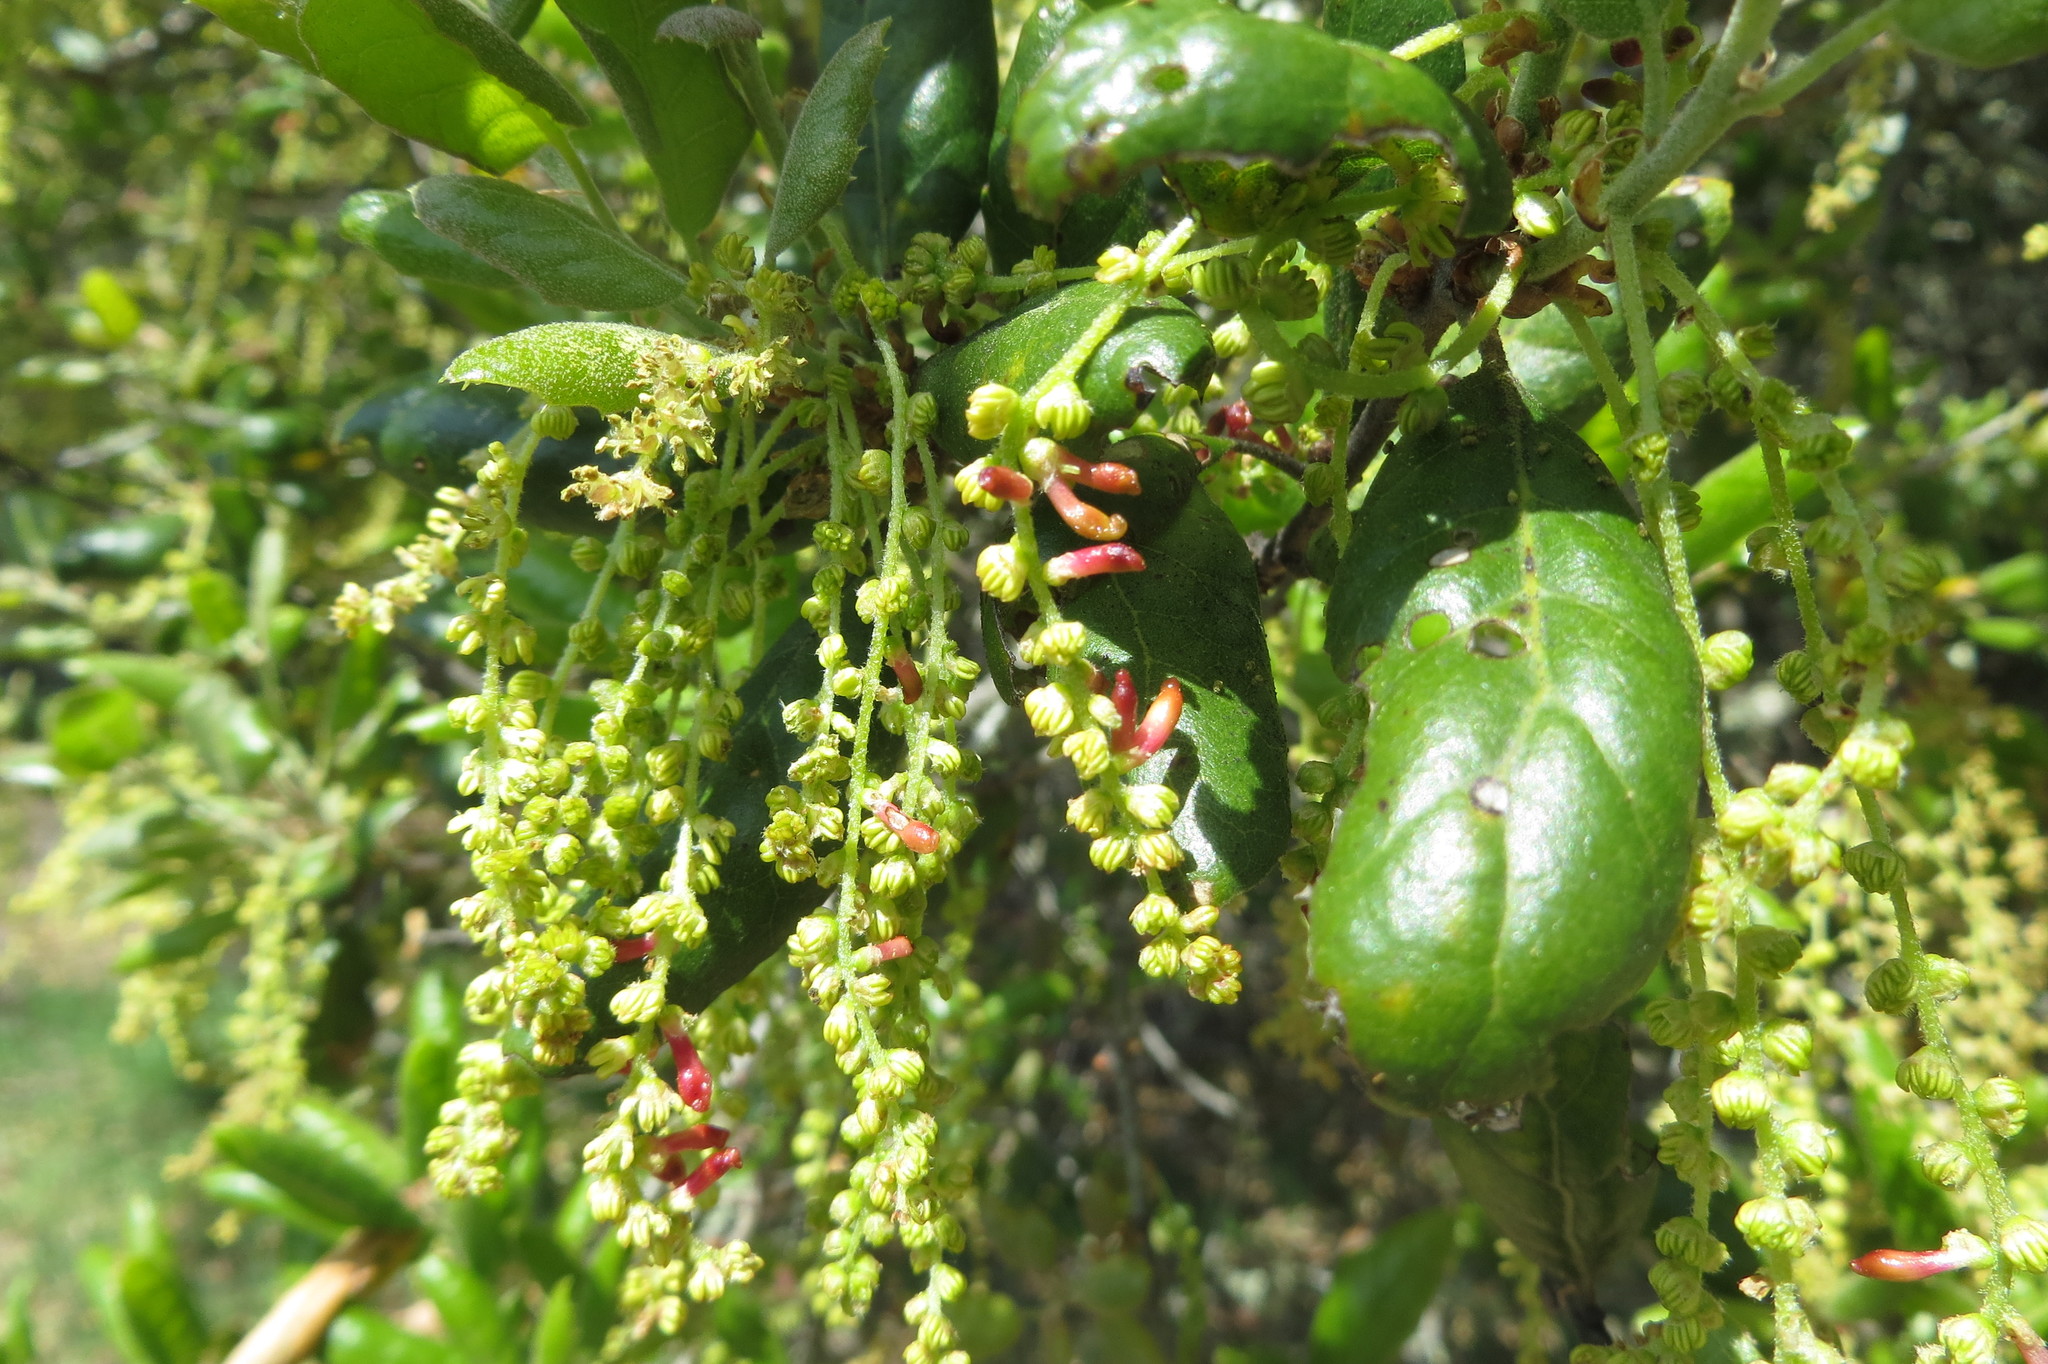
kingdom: Plantae
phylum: Tracheophyta
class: Magnoliopsida
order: Fagales
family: Fagaceae
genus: Quercus
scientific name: Quercus agrifolia
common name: California live oak
